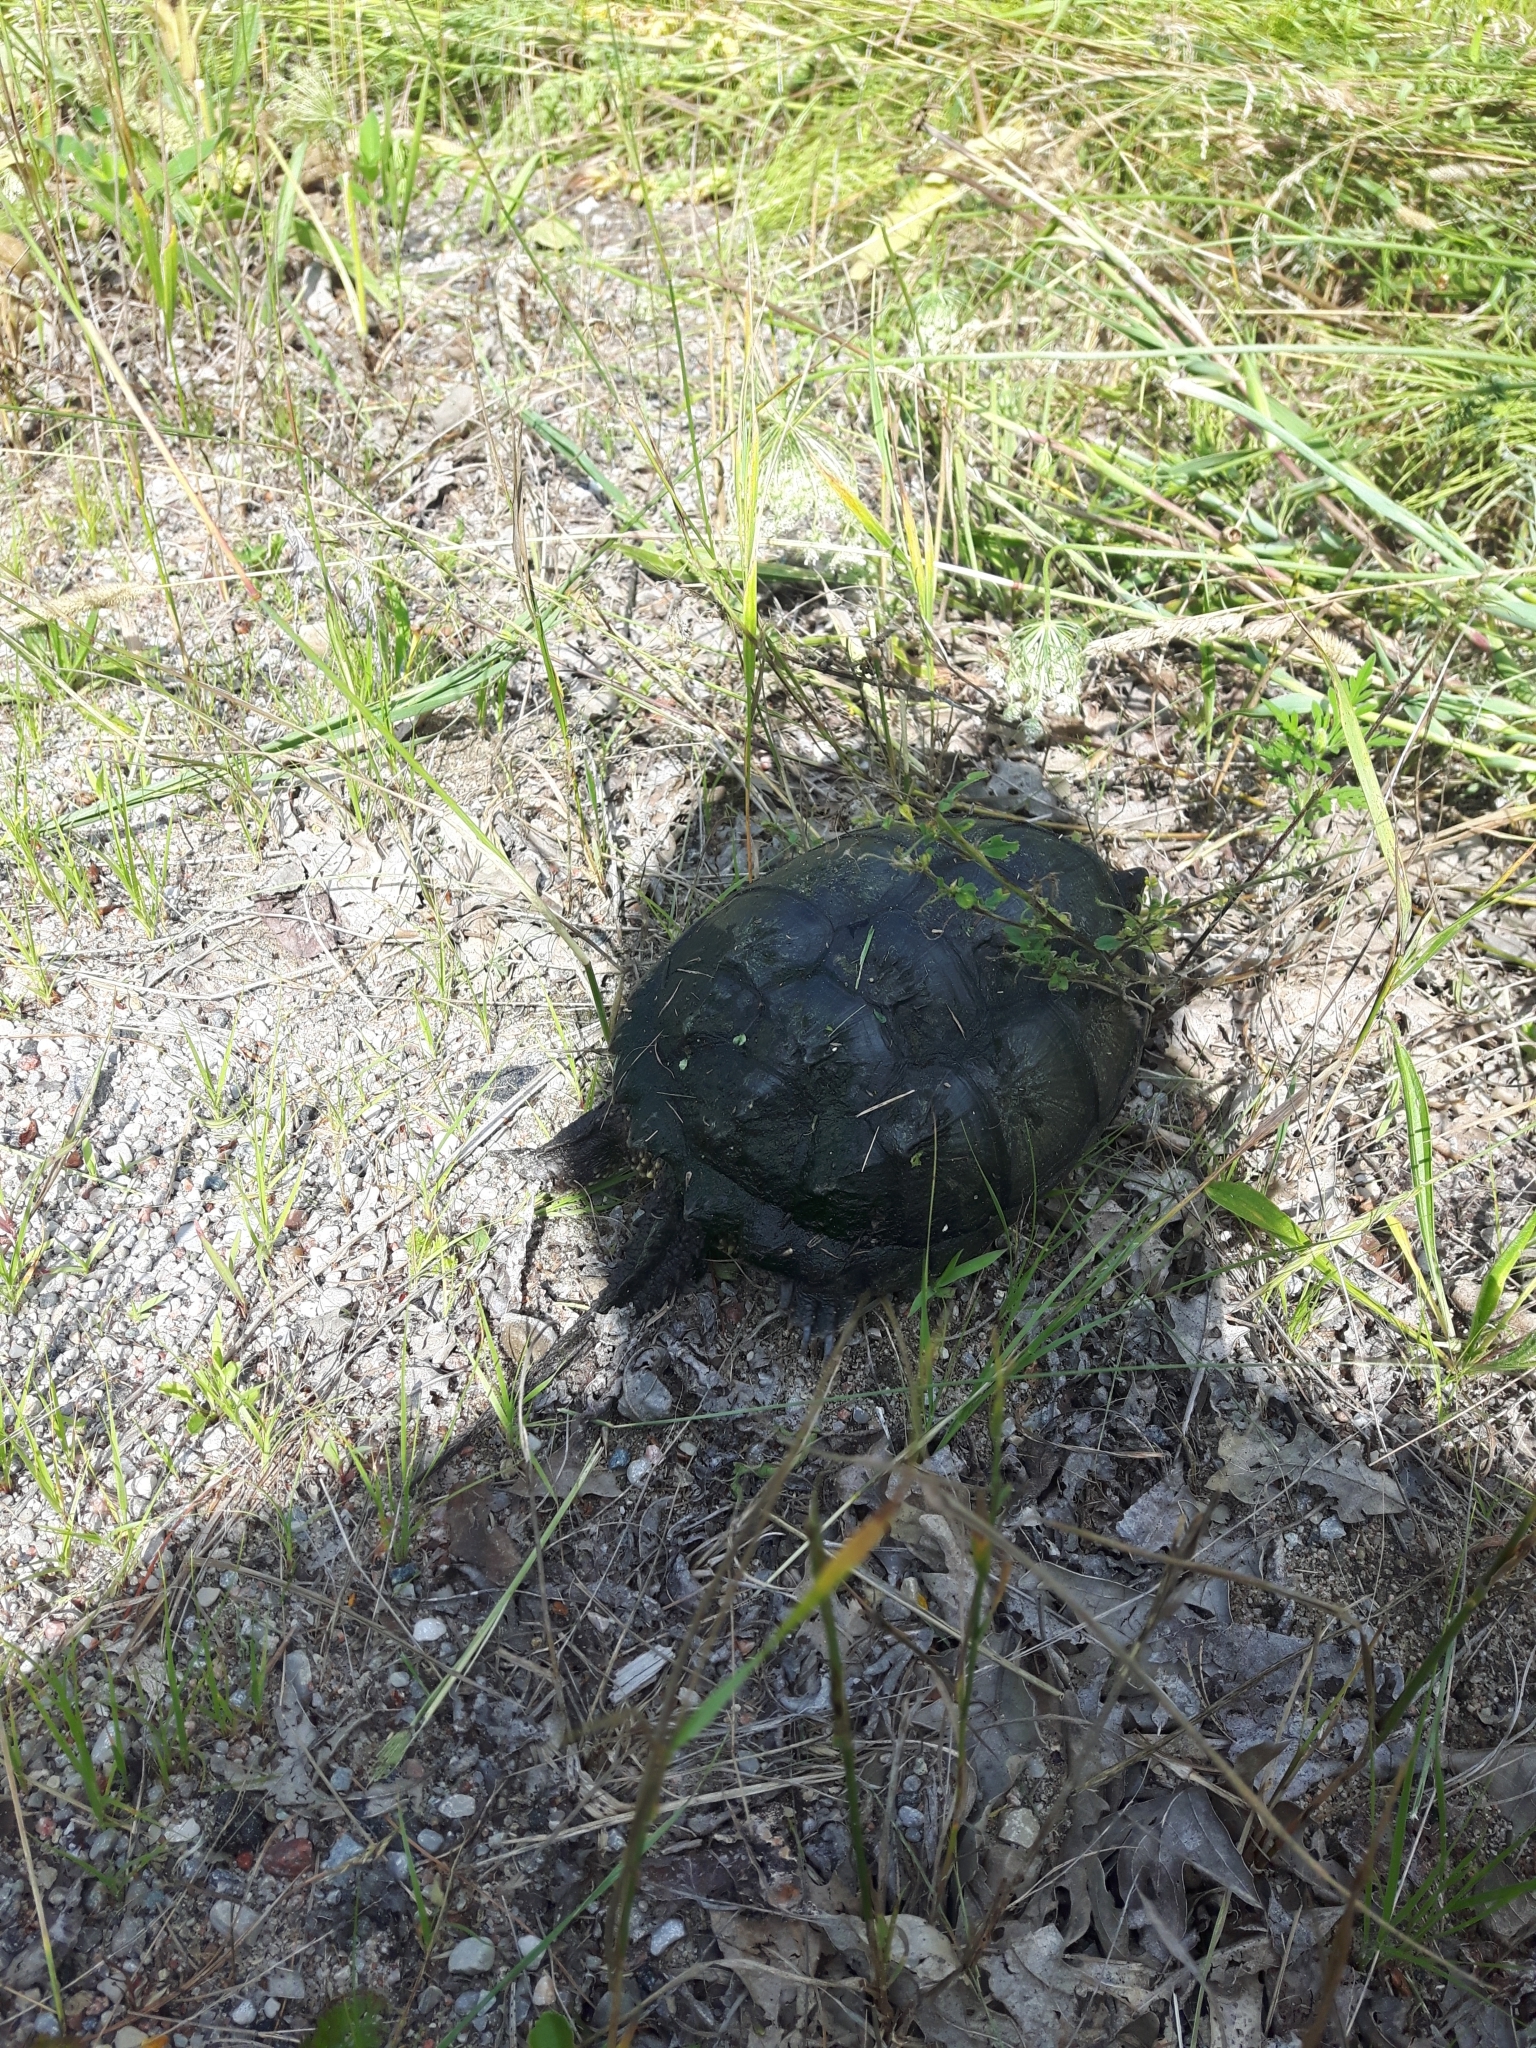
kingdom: Animalia
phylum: Chordata
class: Testudines
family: Chelydridae
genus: Chelydra
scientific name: Chelydra serpentina
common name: Common snapping turtle
